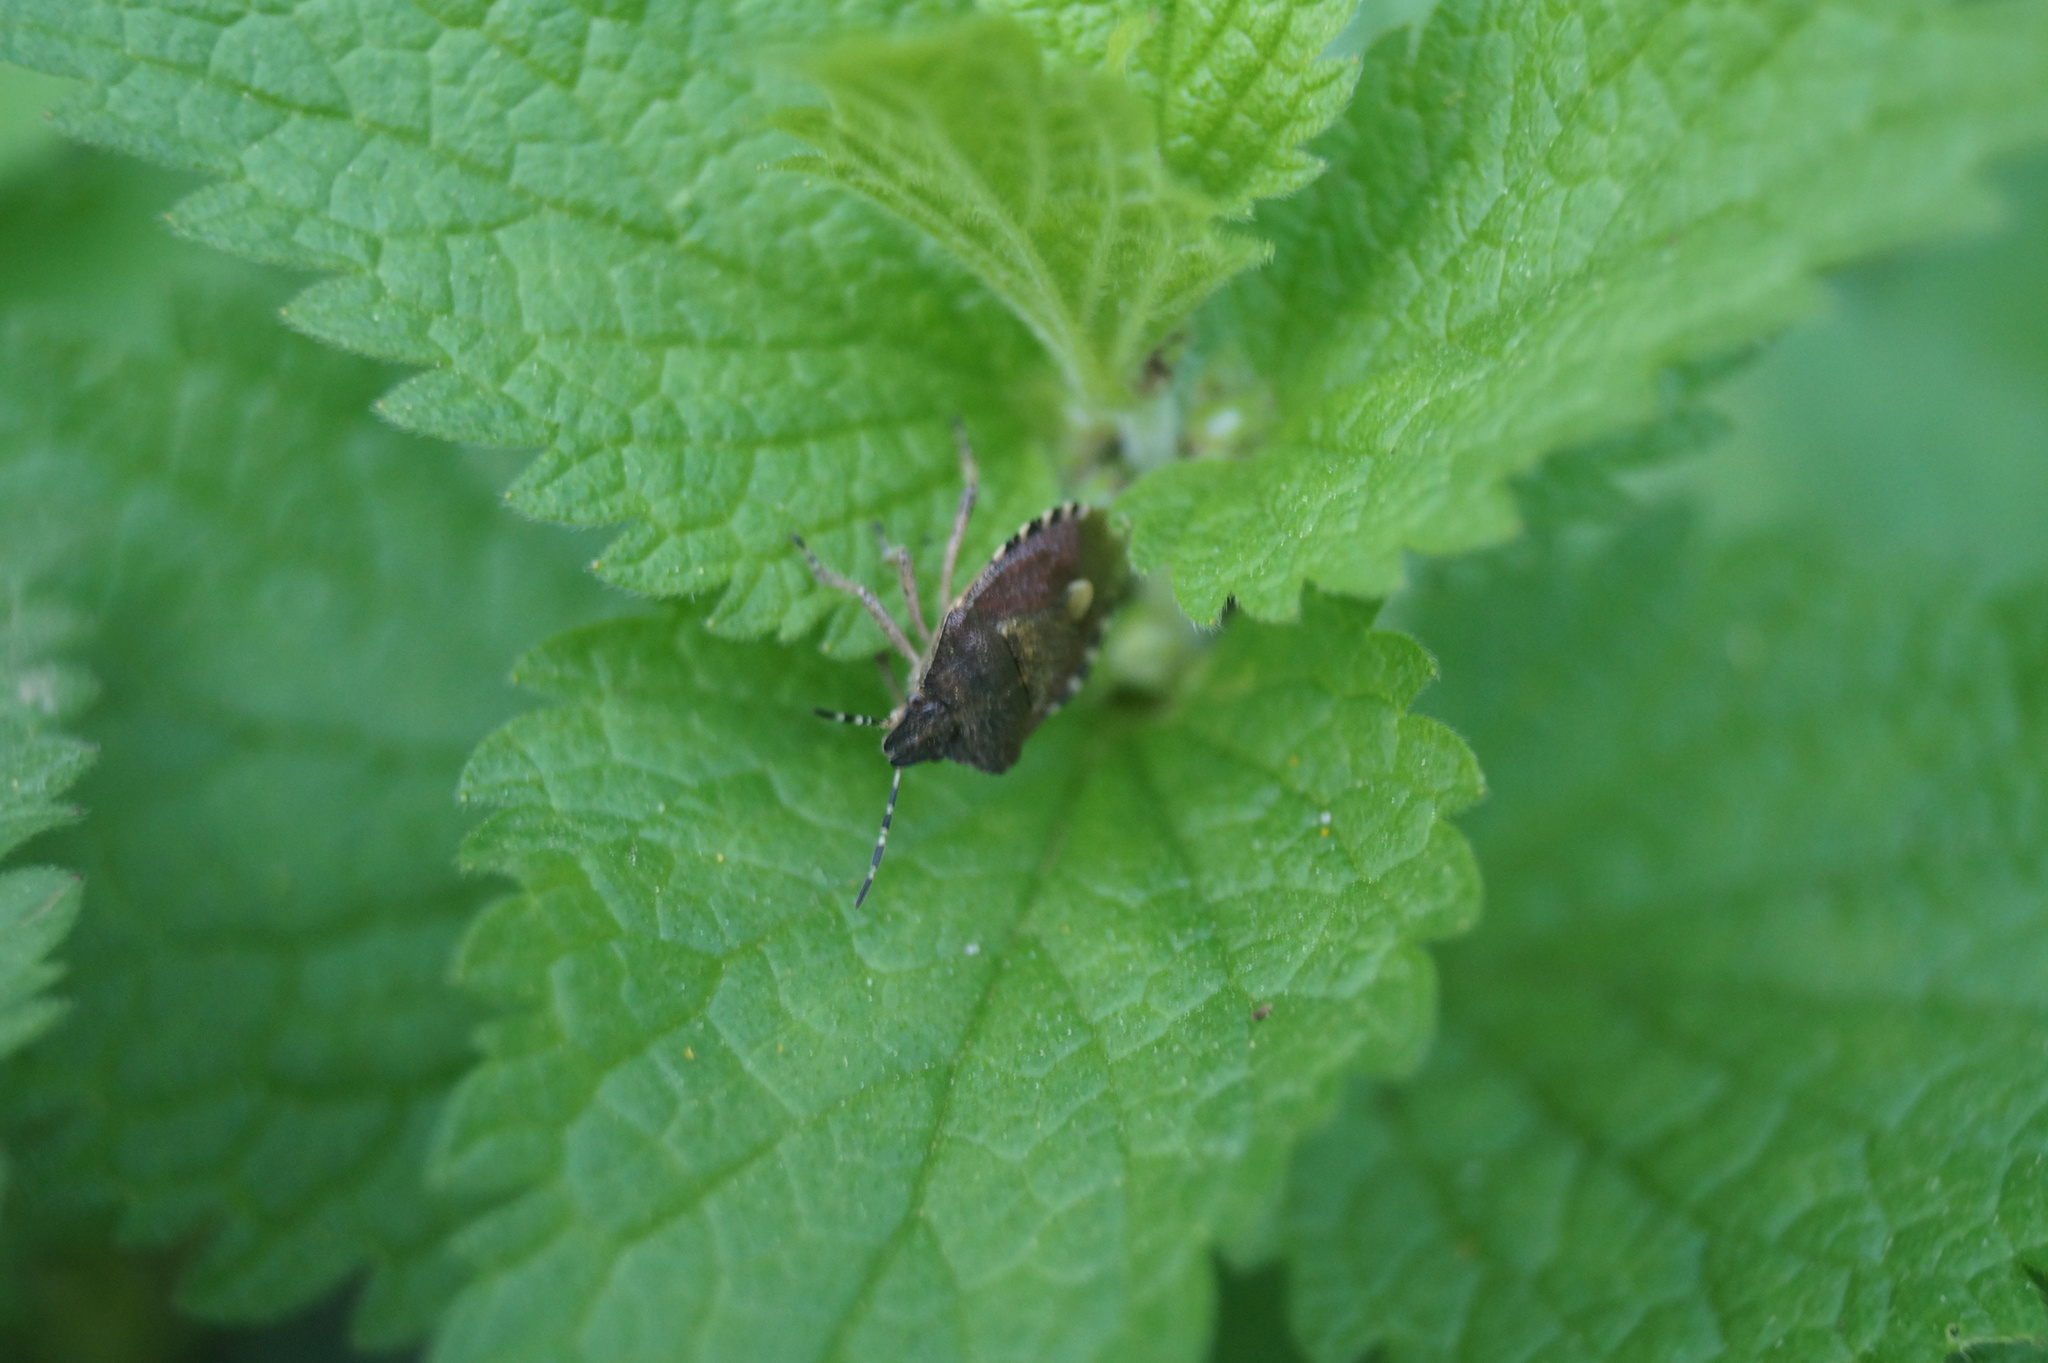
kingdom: Animalia
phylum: Arthropoda
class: Insecta
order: Hemiptera
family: Pentatomidae
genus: Dolycoris
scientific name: Dolycoris baccarum
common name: Sloe bug
